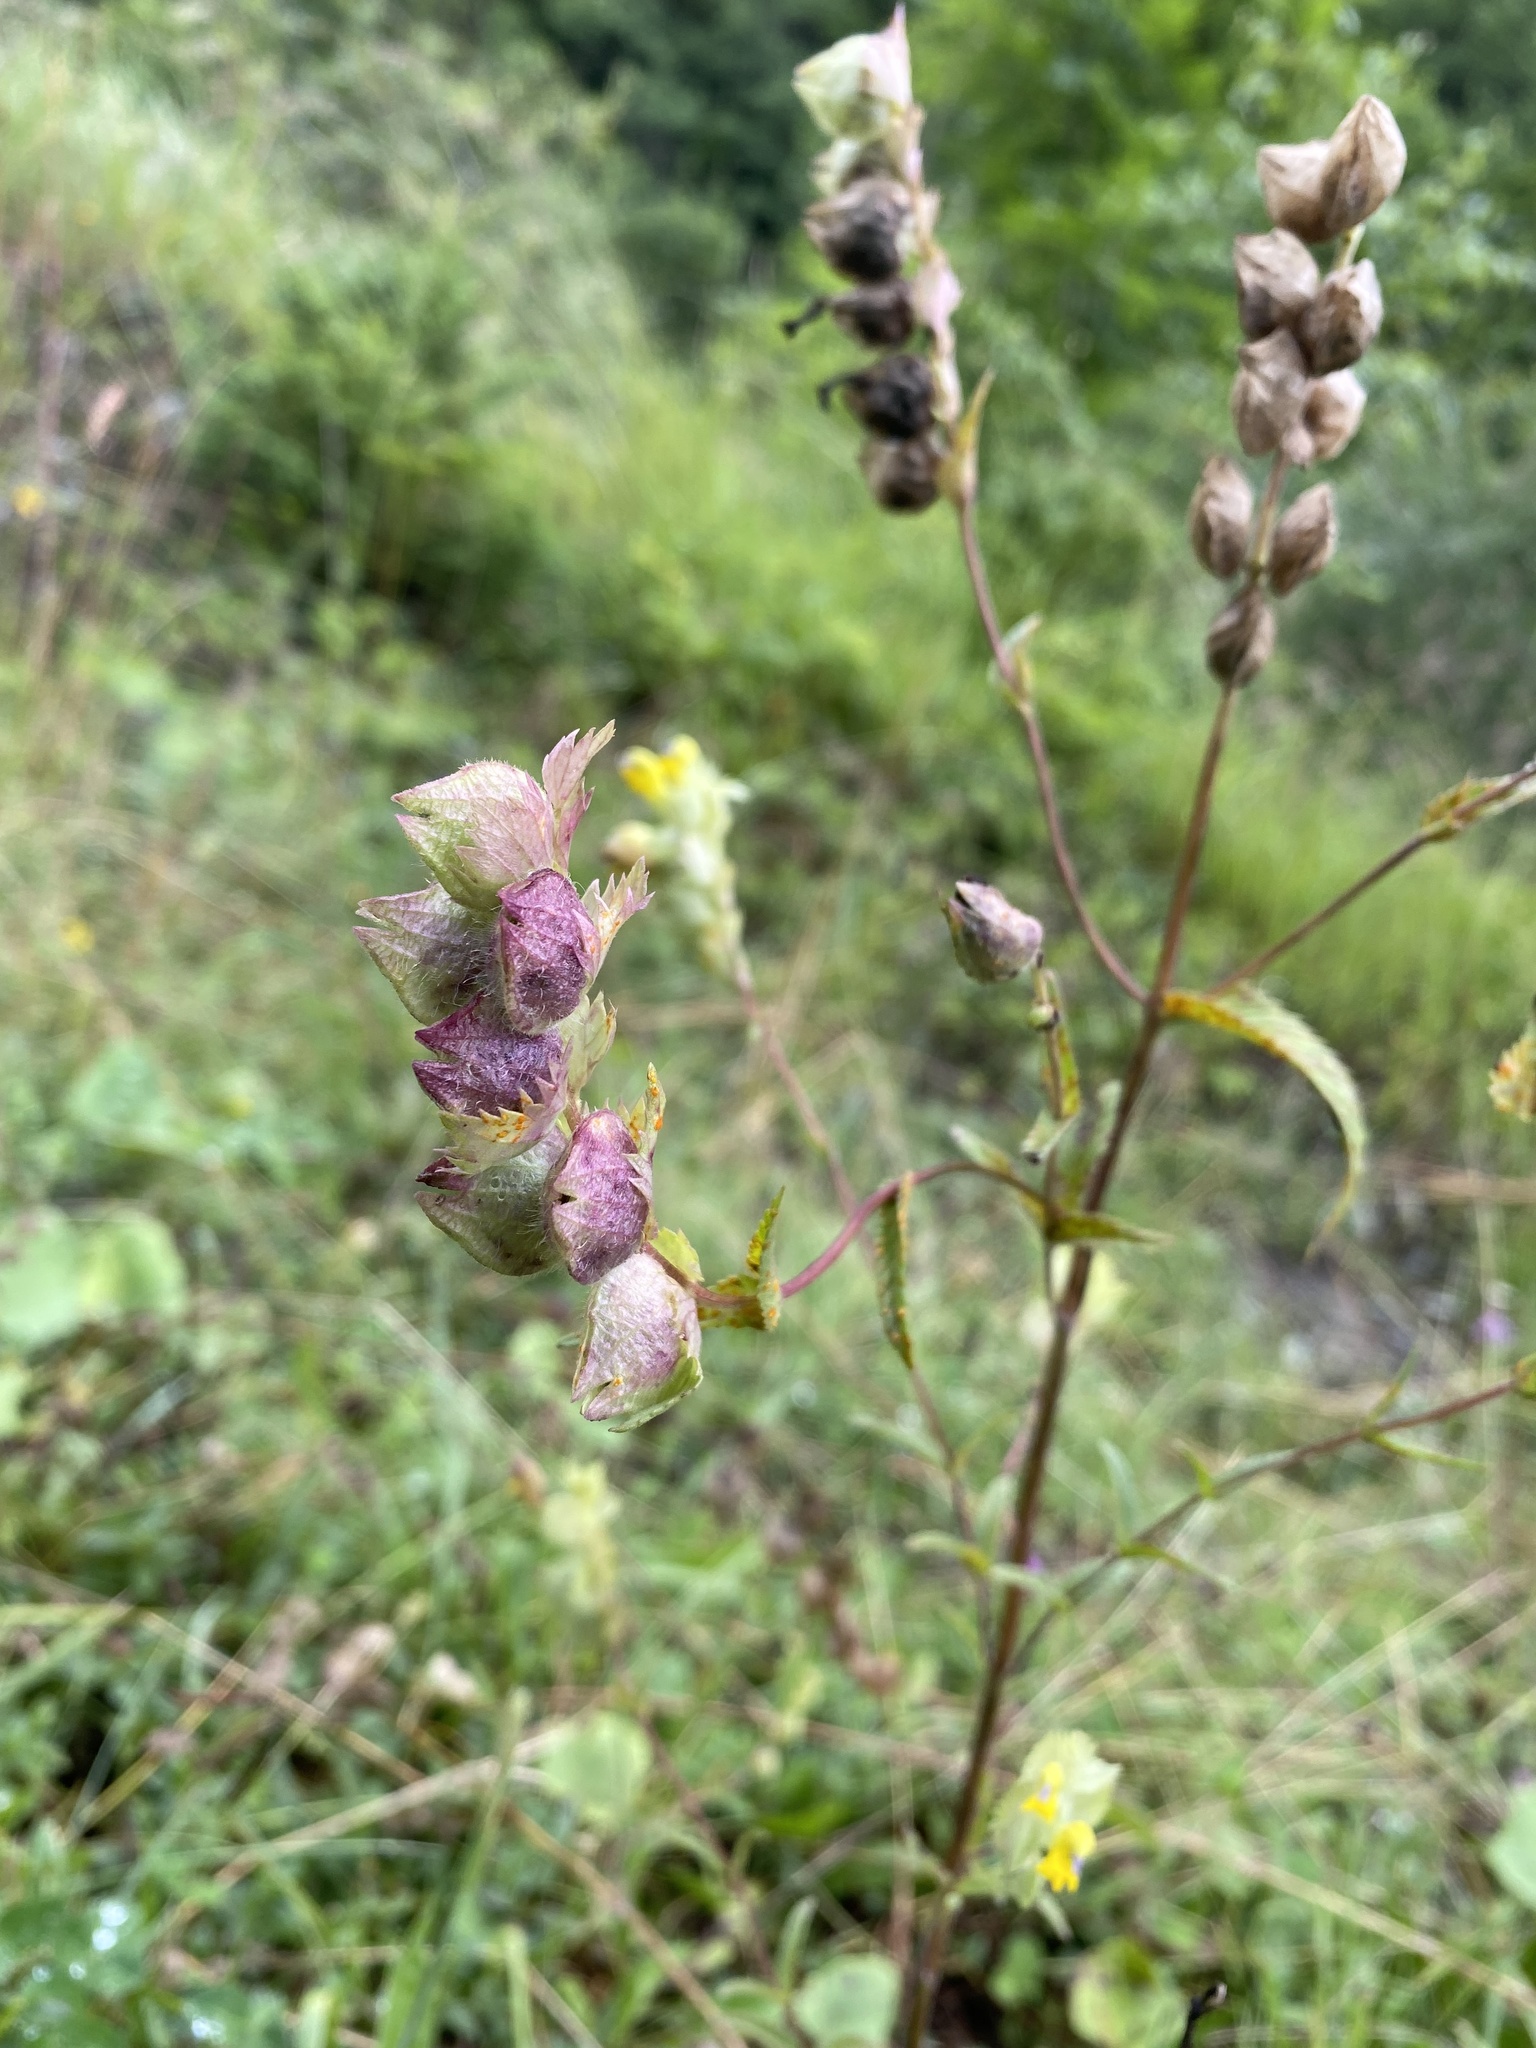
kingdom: Plantae
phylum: Tracheophyta
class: Magnoliopsida
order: Lamiales
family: Orobanchaceae
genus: Rhinanthus
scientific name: Rhinanthus alectorolophus
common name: Greater yellow-rattle
